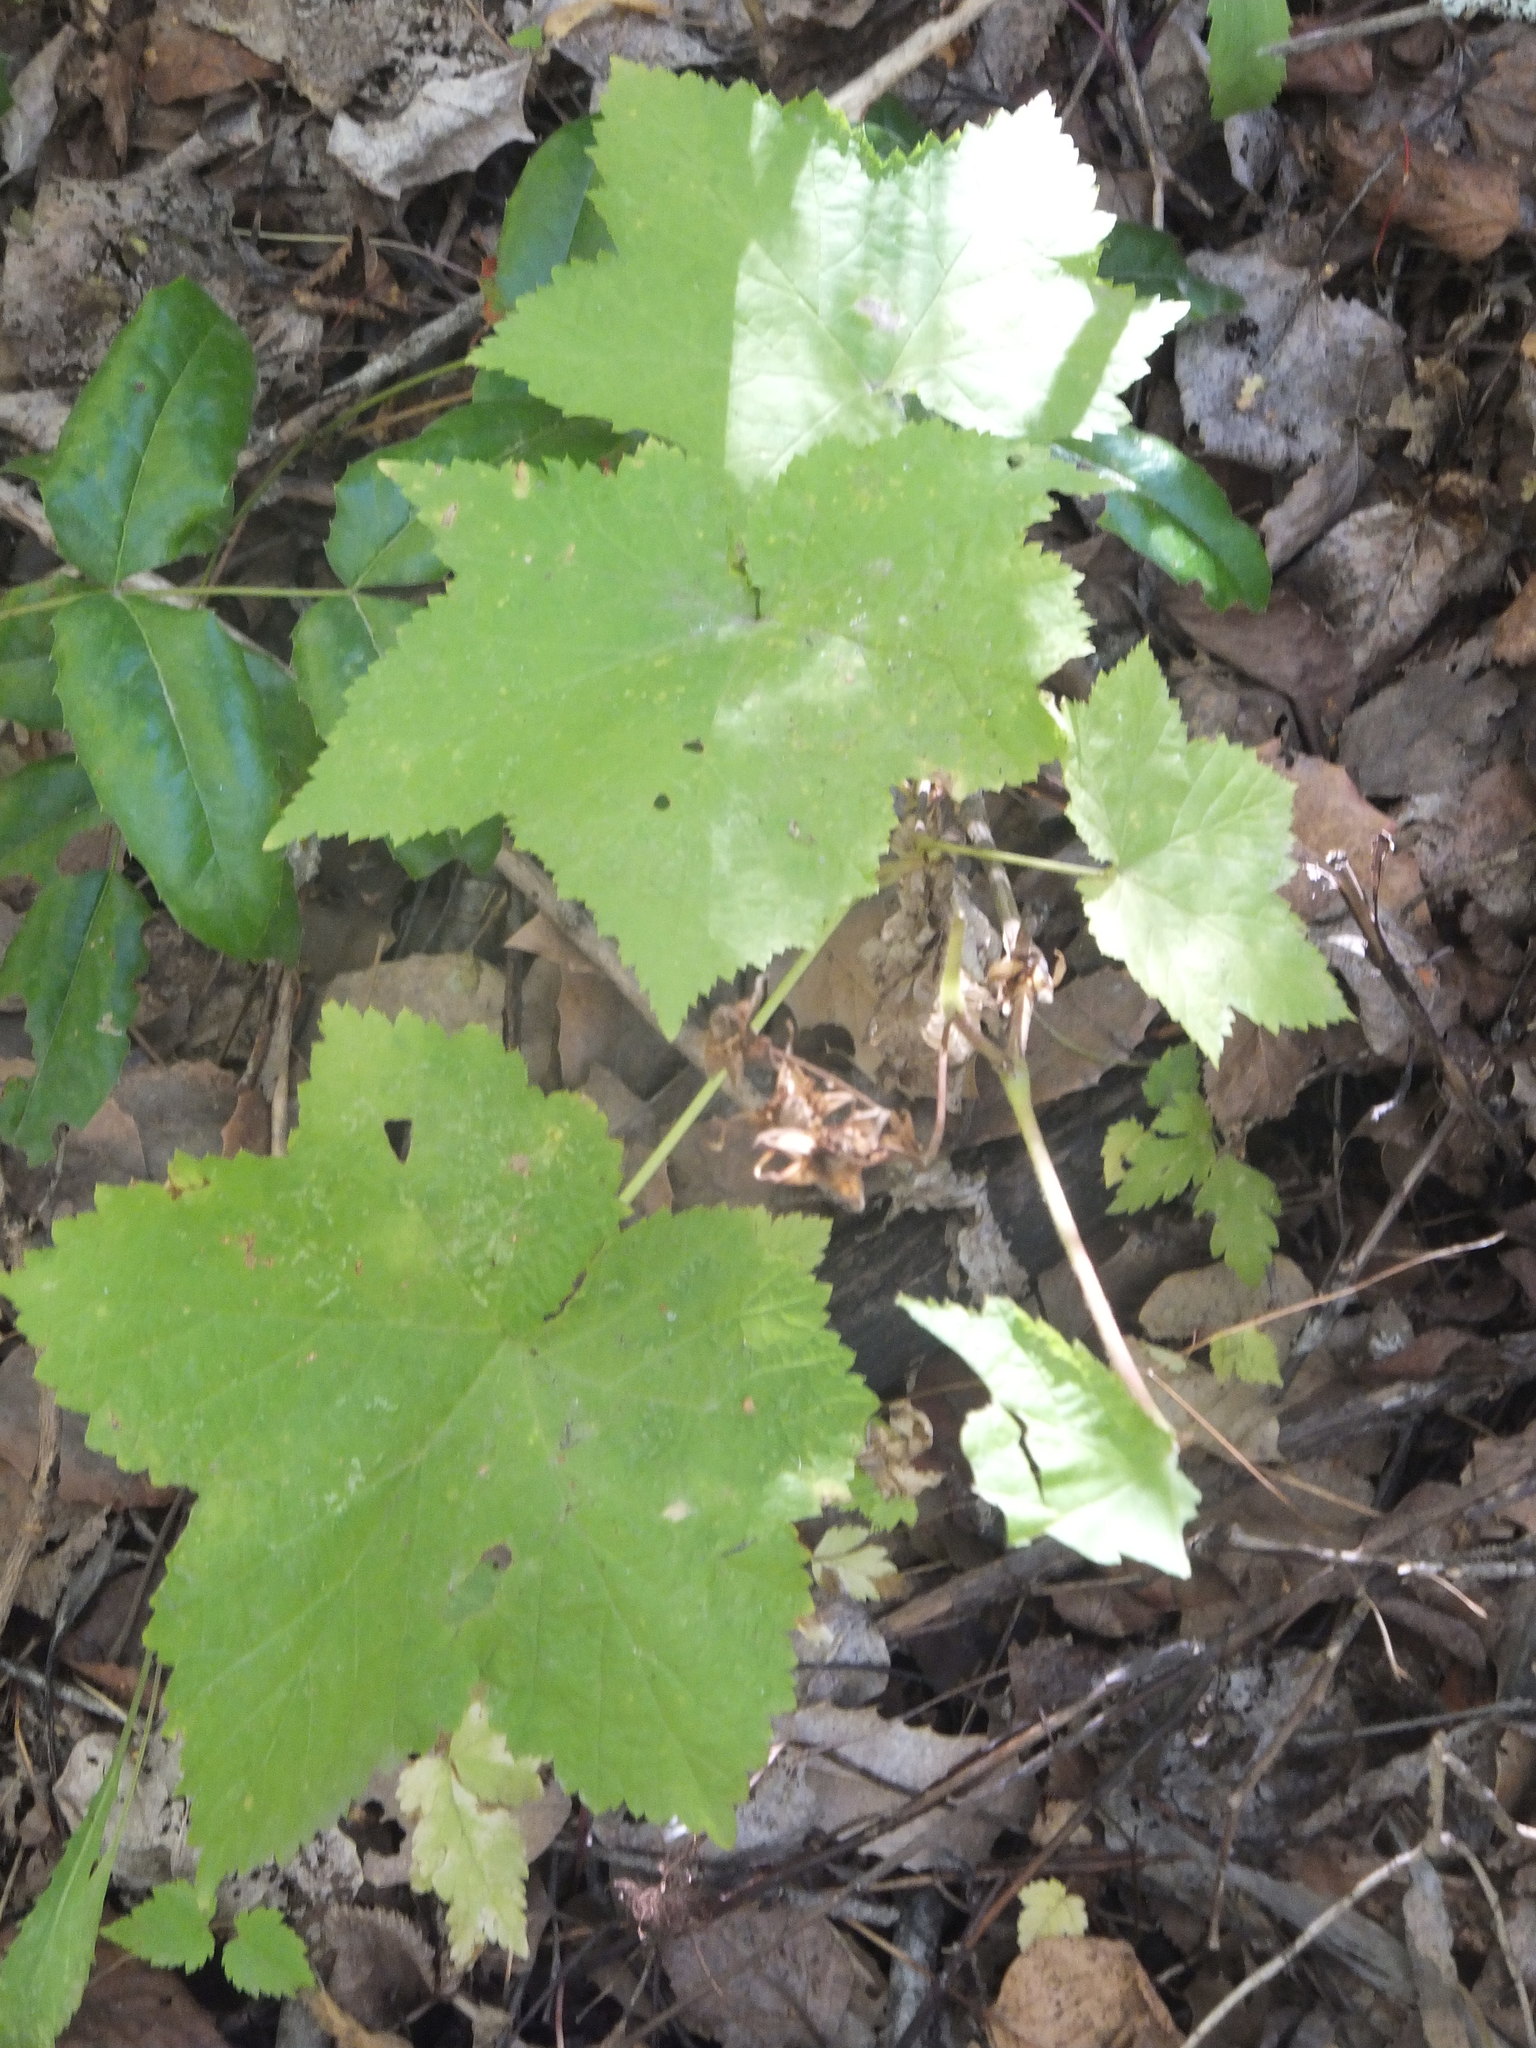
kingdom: Plantae
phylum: Tracheophyta
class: Magnoliopsida
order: Rosales
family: Rosaceae
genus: Rubus
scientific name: Rubus parviflorus
